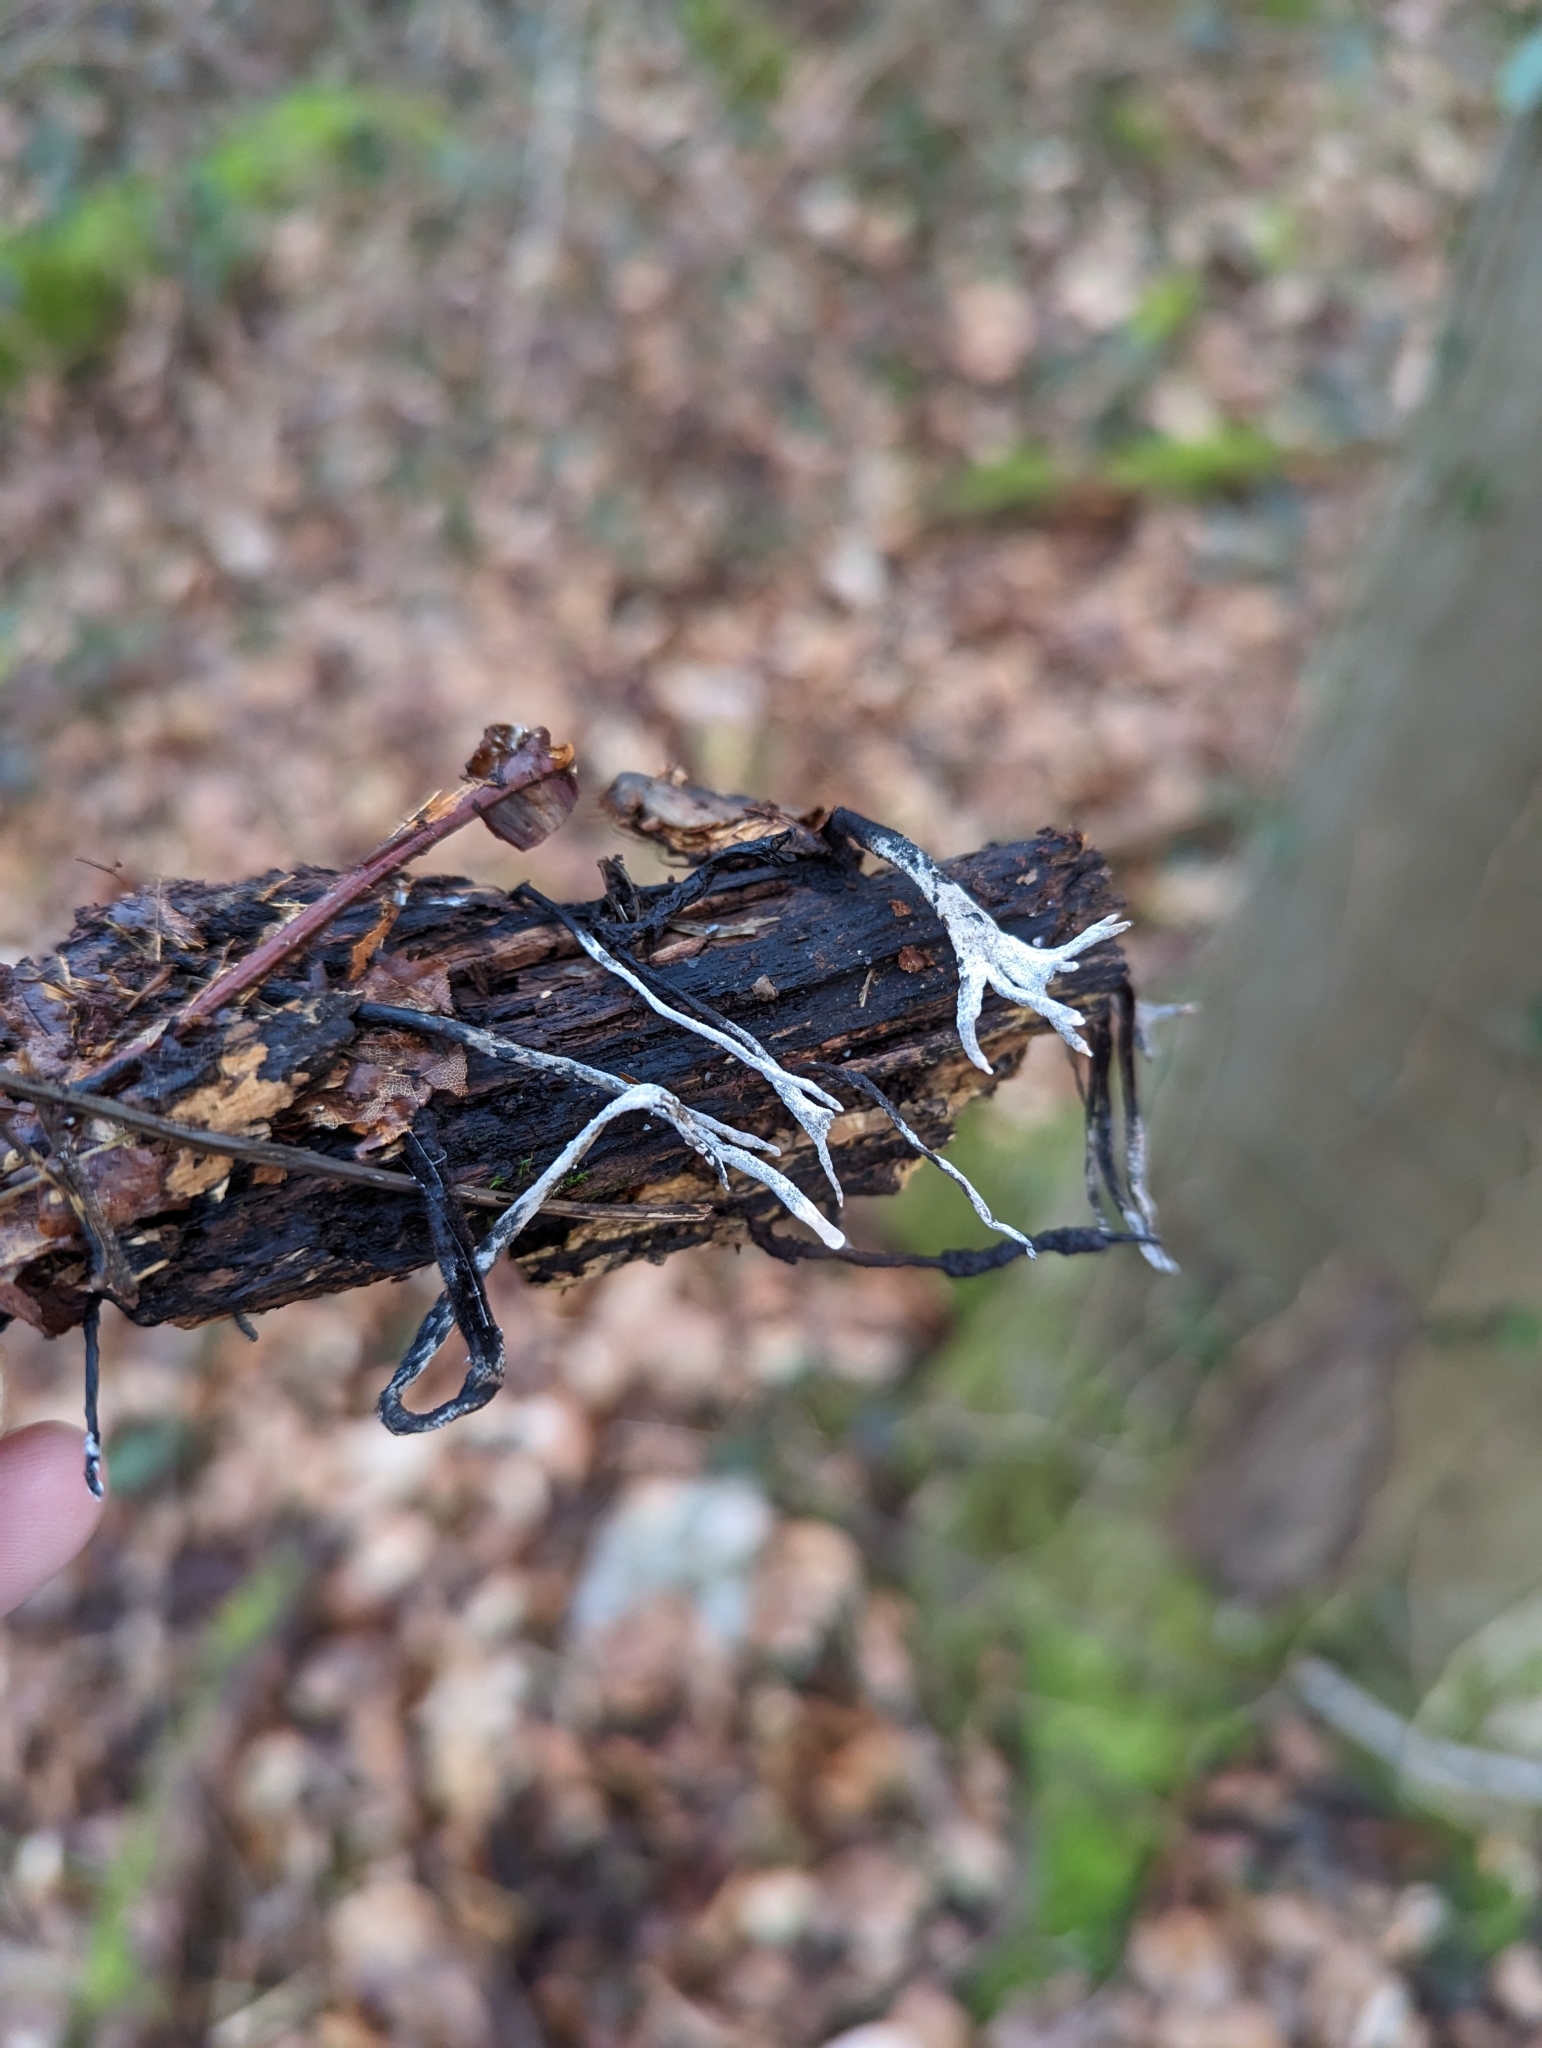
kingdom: Fungi
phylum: Ascomycota
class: Sordariomycetes
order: Xylariales
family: Xylariaceae
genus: Xylaria
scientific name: Xylaria hypoxylon
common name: Candle-snuff fungus
